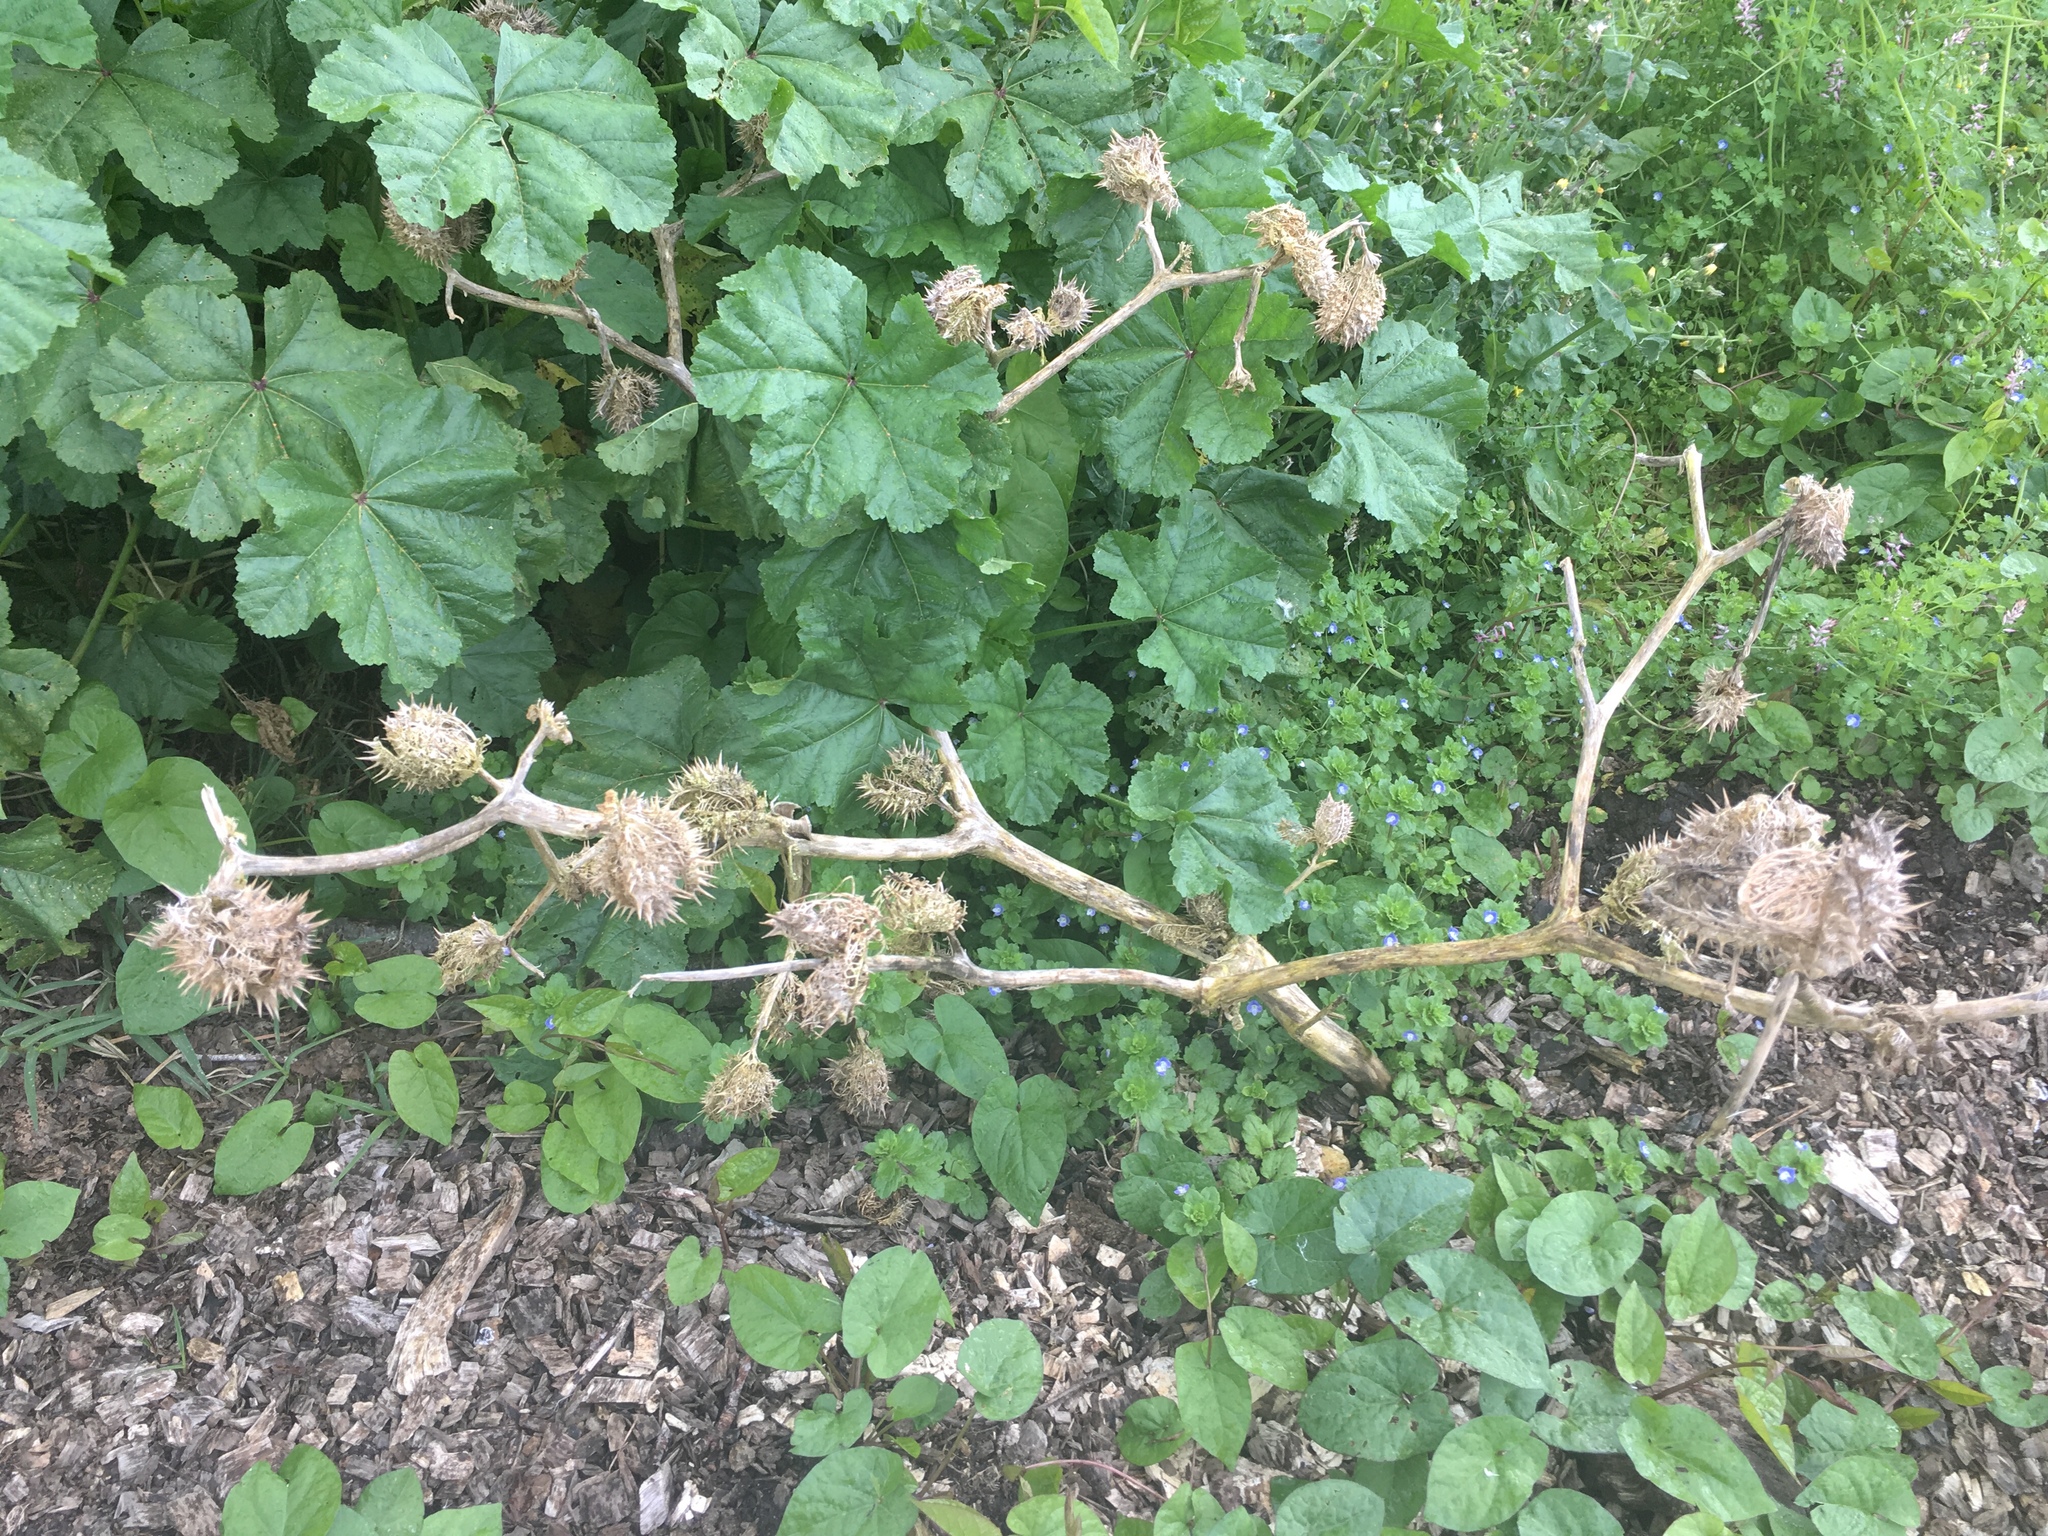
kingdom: Plantae
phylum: Tracheophyta
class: Magnoliopsida
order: Solanales
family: Solanaceae
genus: Datura
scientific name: Datura stramonium
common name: Thorn-apple
